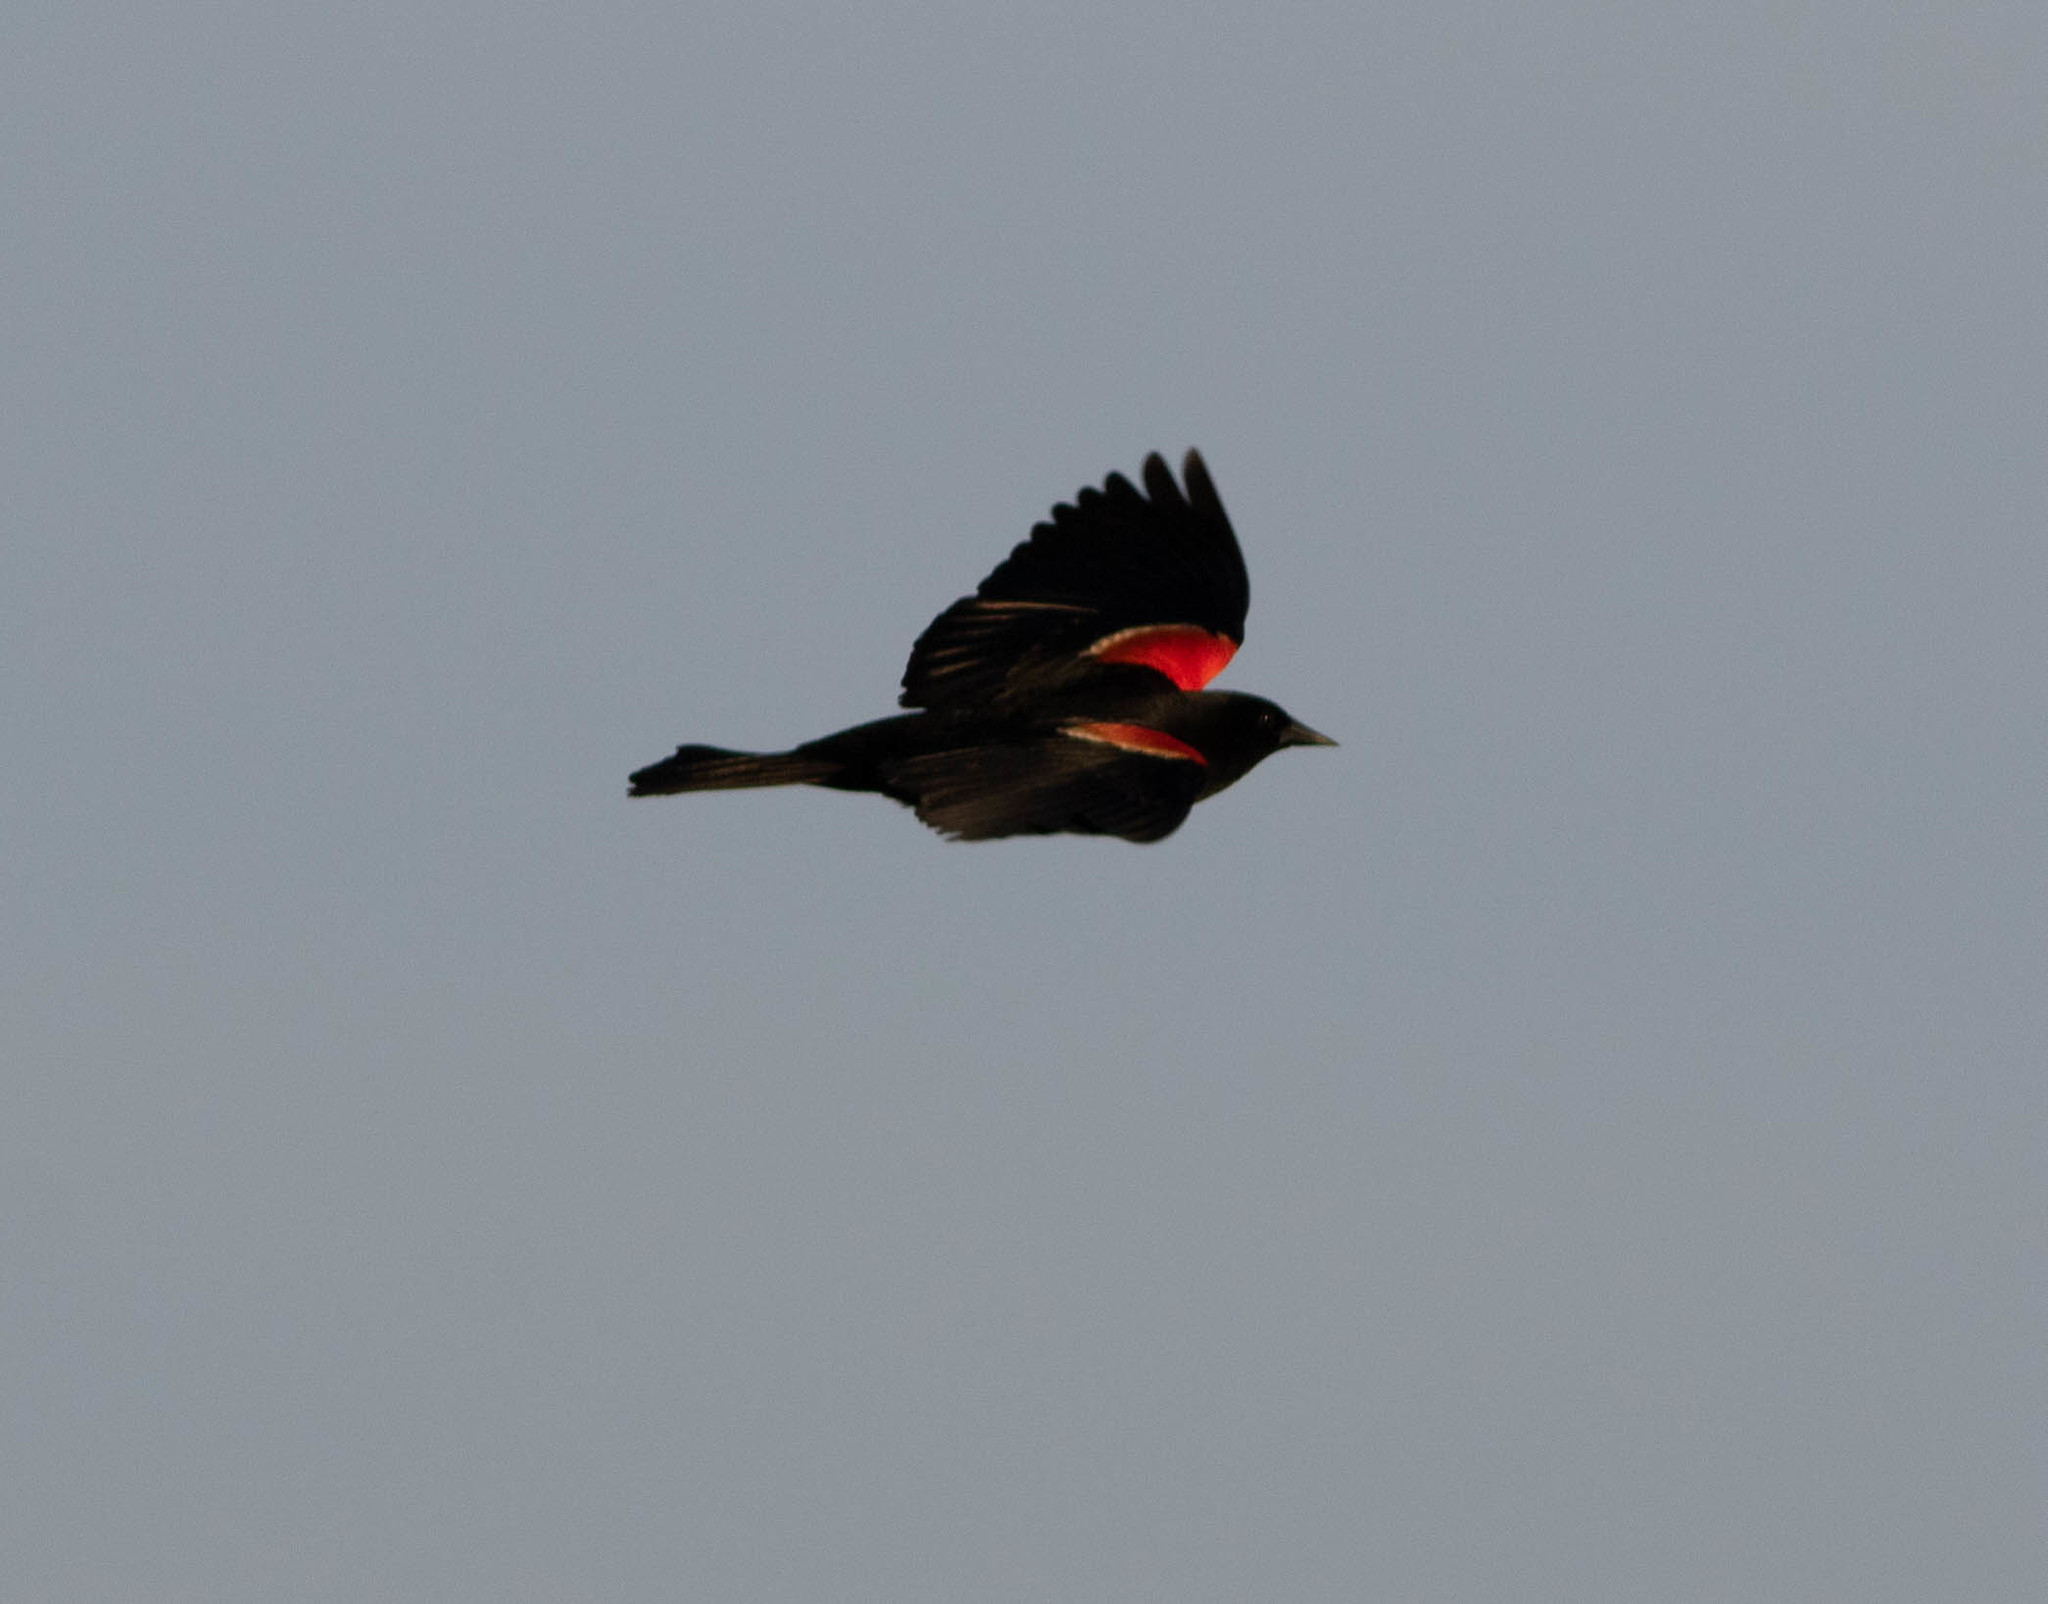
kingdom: Animalia
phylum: Chordata
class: Aves
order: Passeriformes
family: Icteridae
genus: Agelaius
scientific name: Agelaius phoeniceus
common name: Red-winged blackbird
